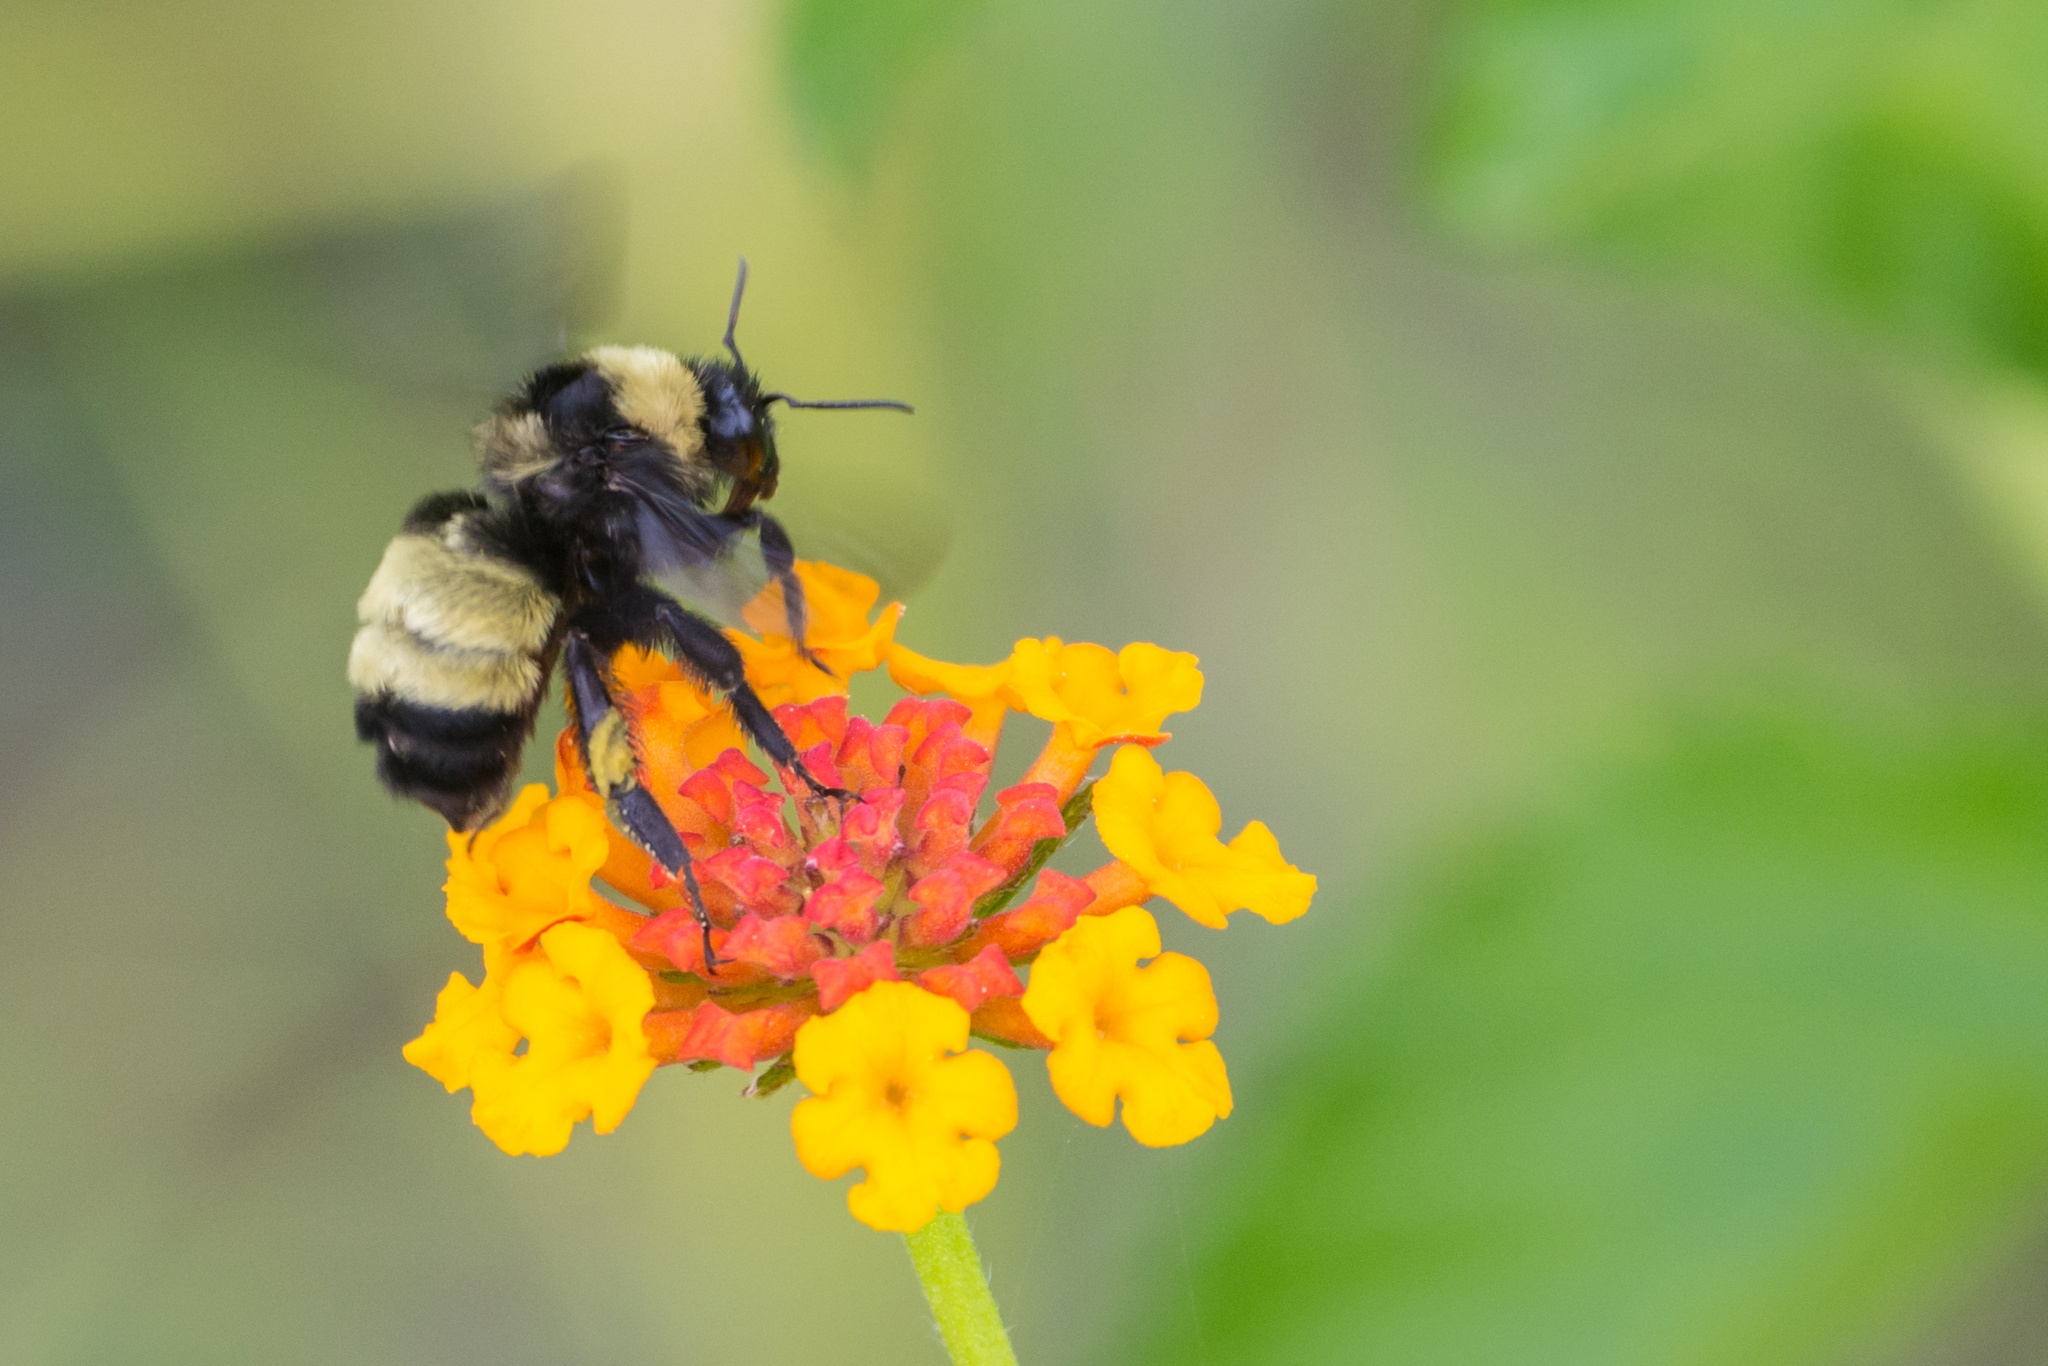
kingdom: Animalia
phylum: Arthropoda
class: Insecta
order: Hymenoptera
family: Apidae
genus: Bombus
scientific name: Bombus pensylvanicus
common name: Bumble bee
